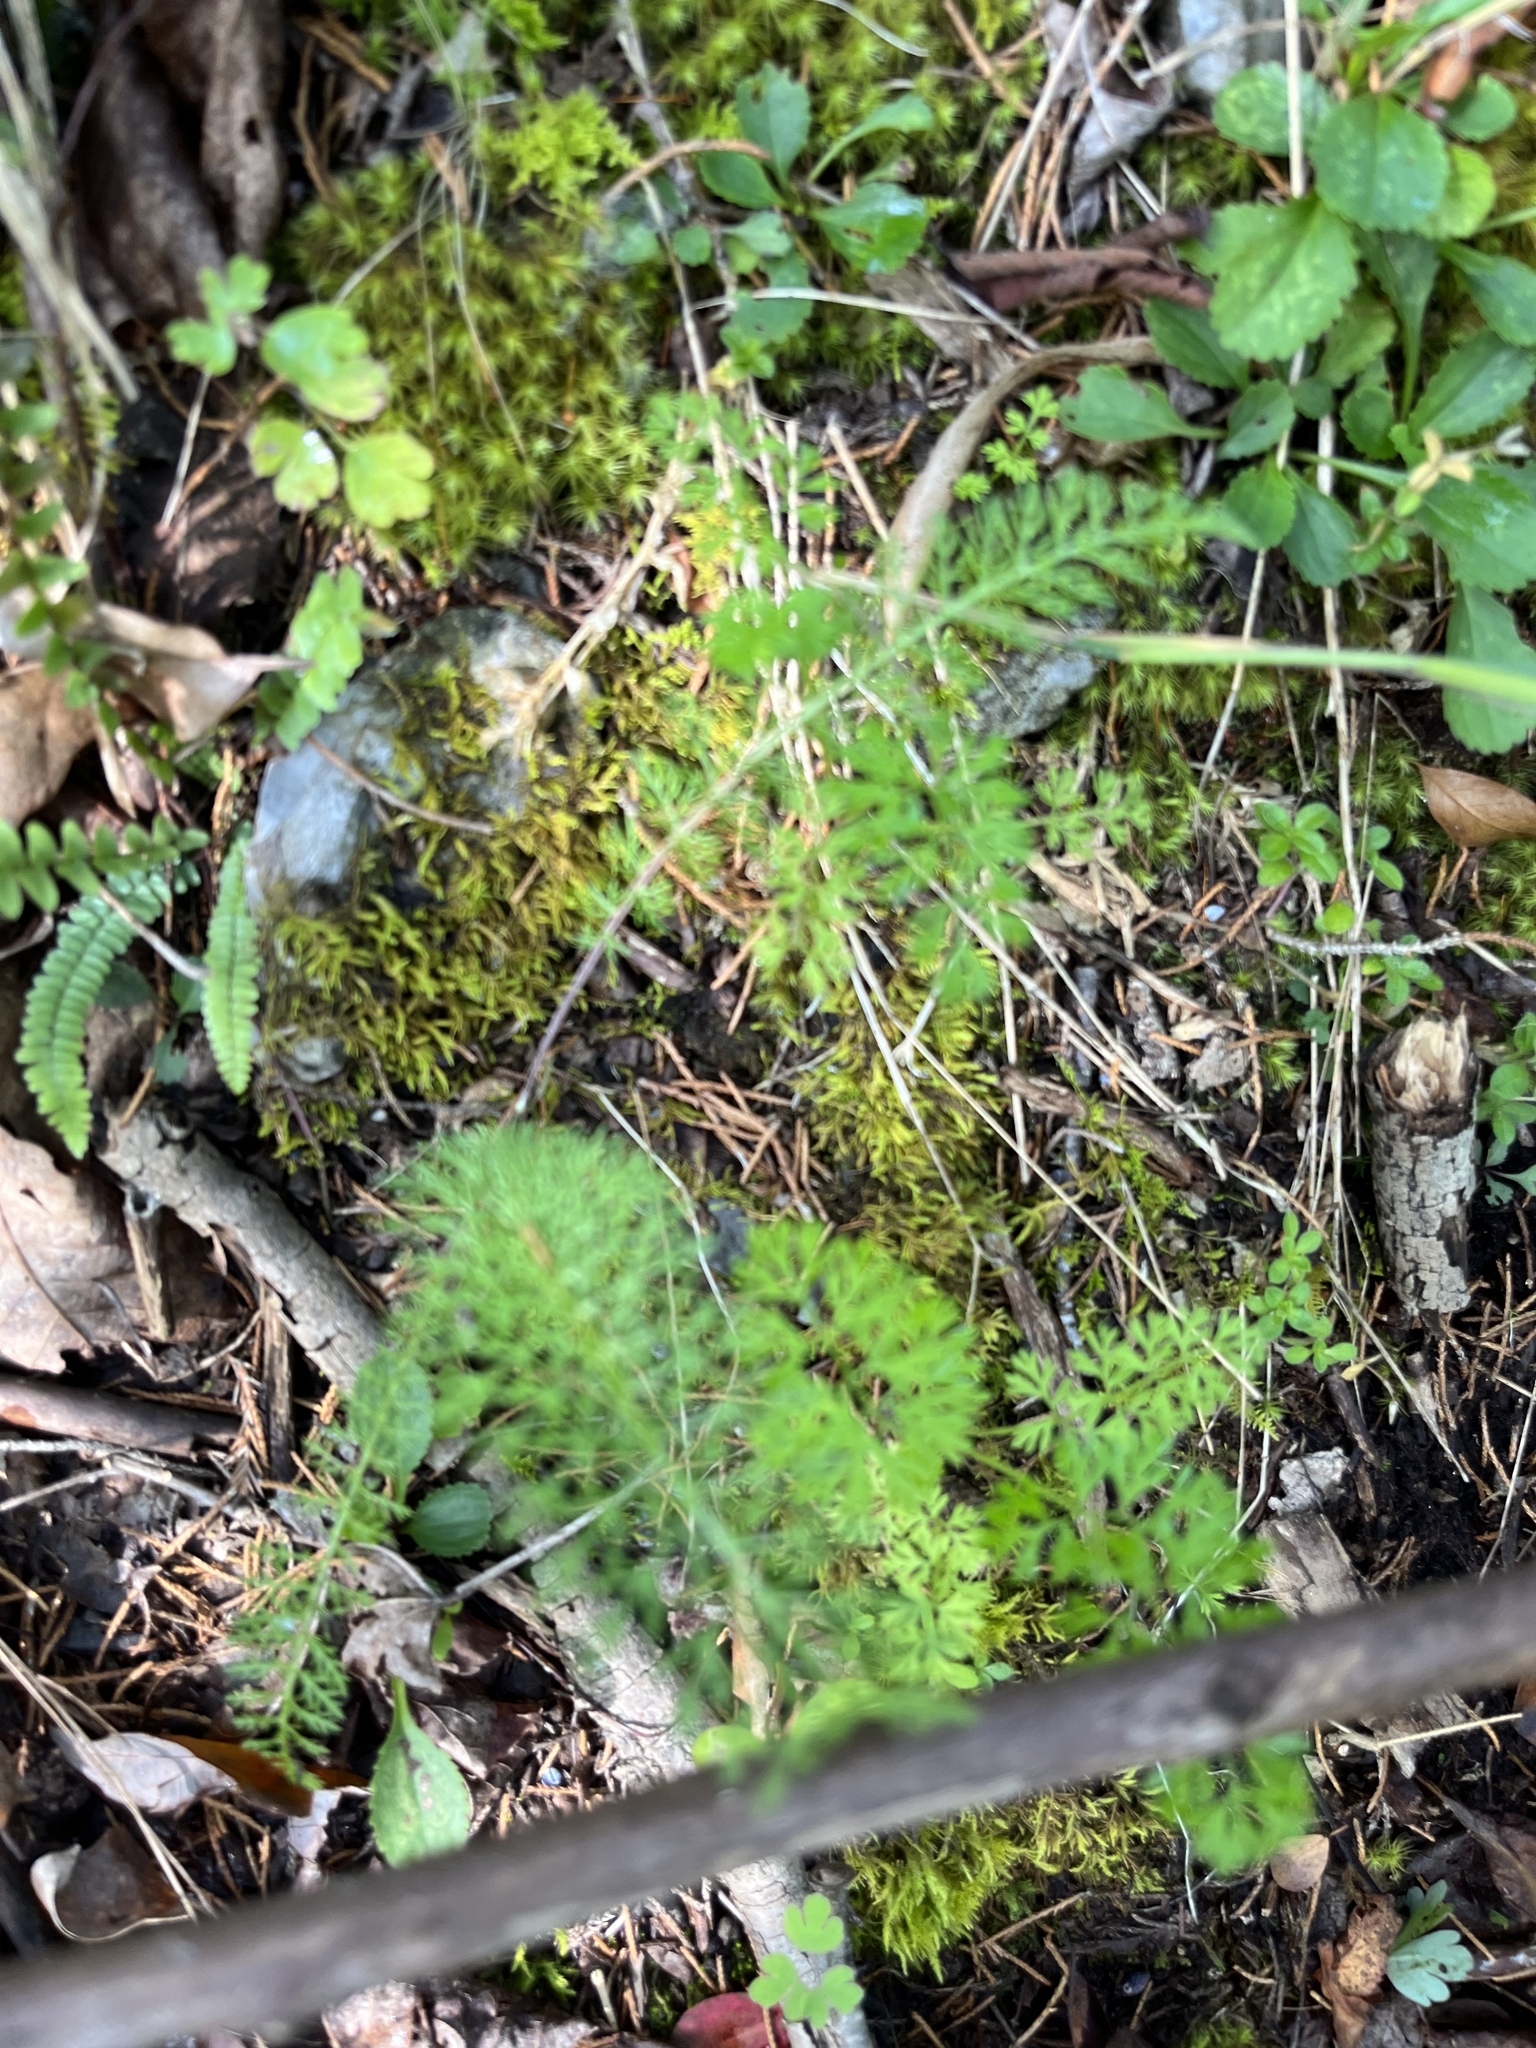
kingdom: Plantae
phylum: Tracheophyta
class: Magnoliopsida
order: Asterales
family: Asteraceae
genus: Achillea
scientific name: Achillea millefolium
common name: Yarrow
